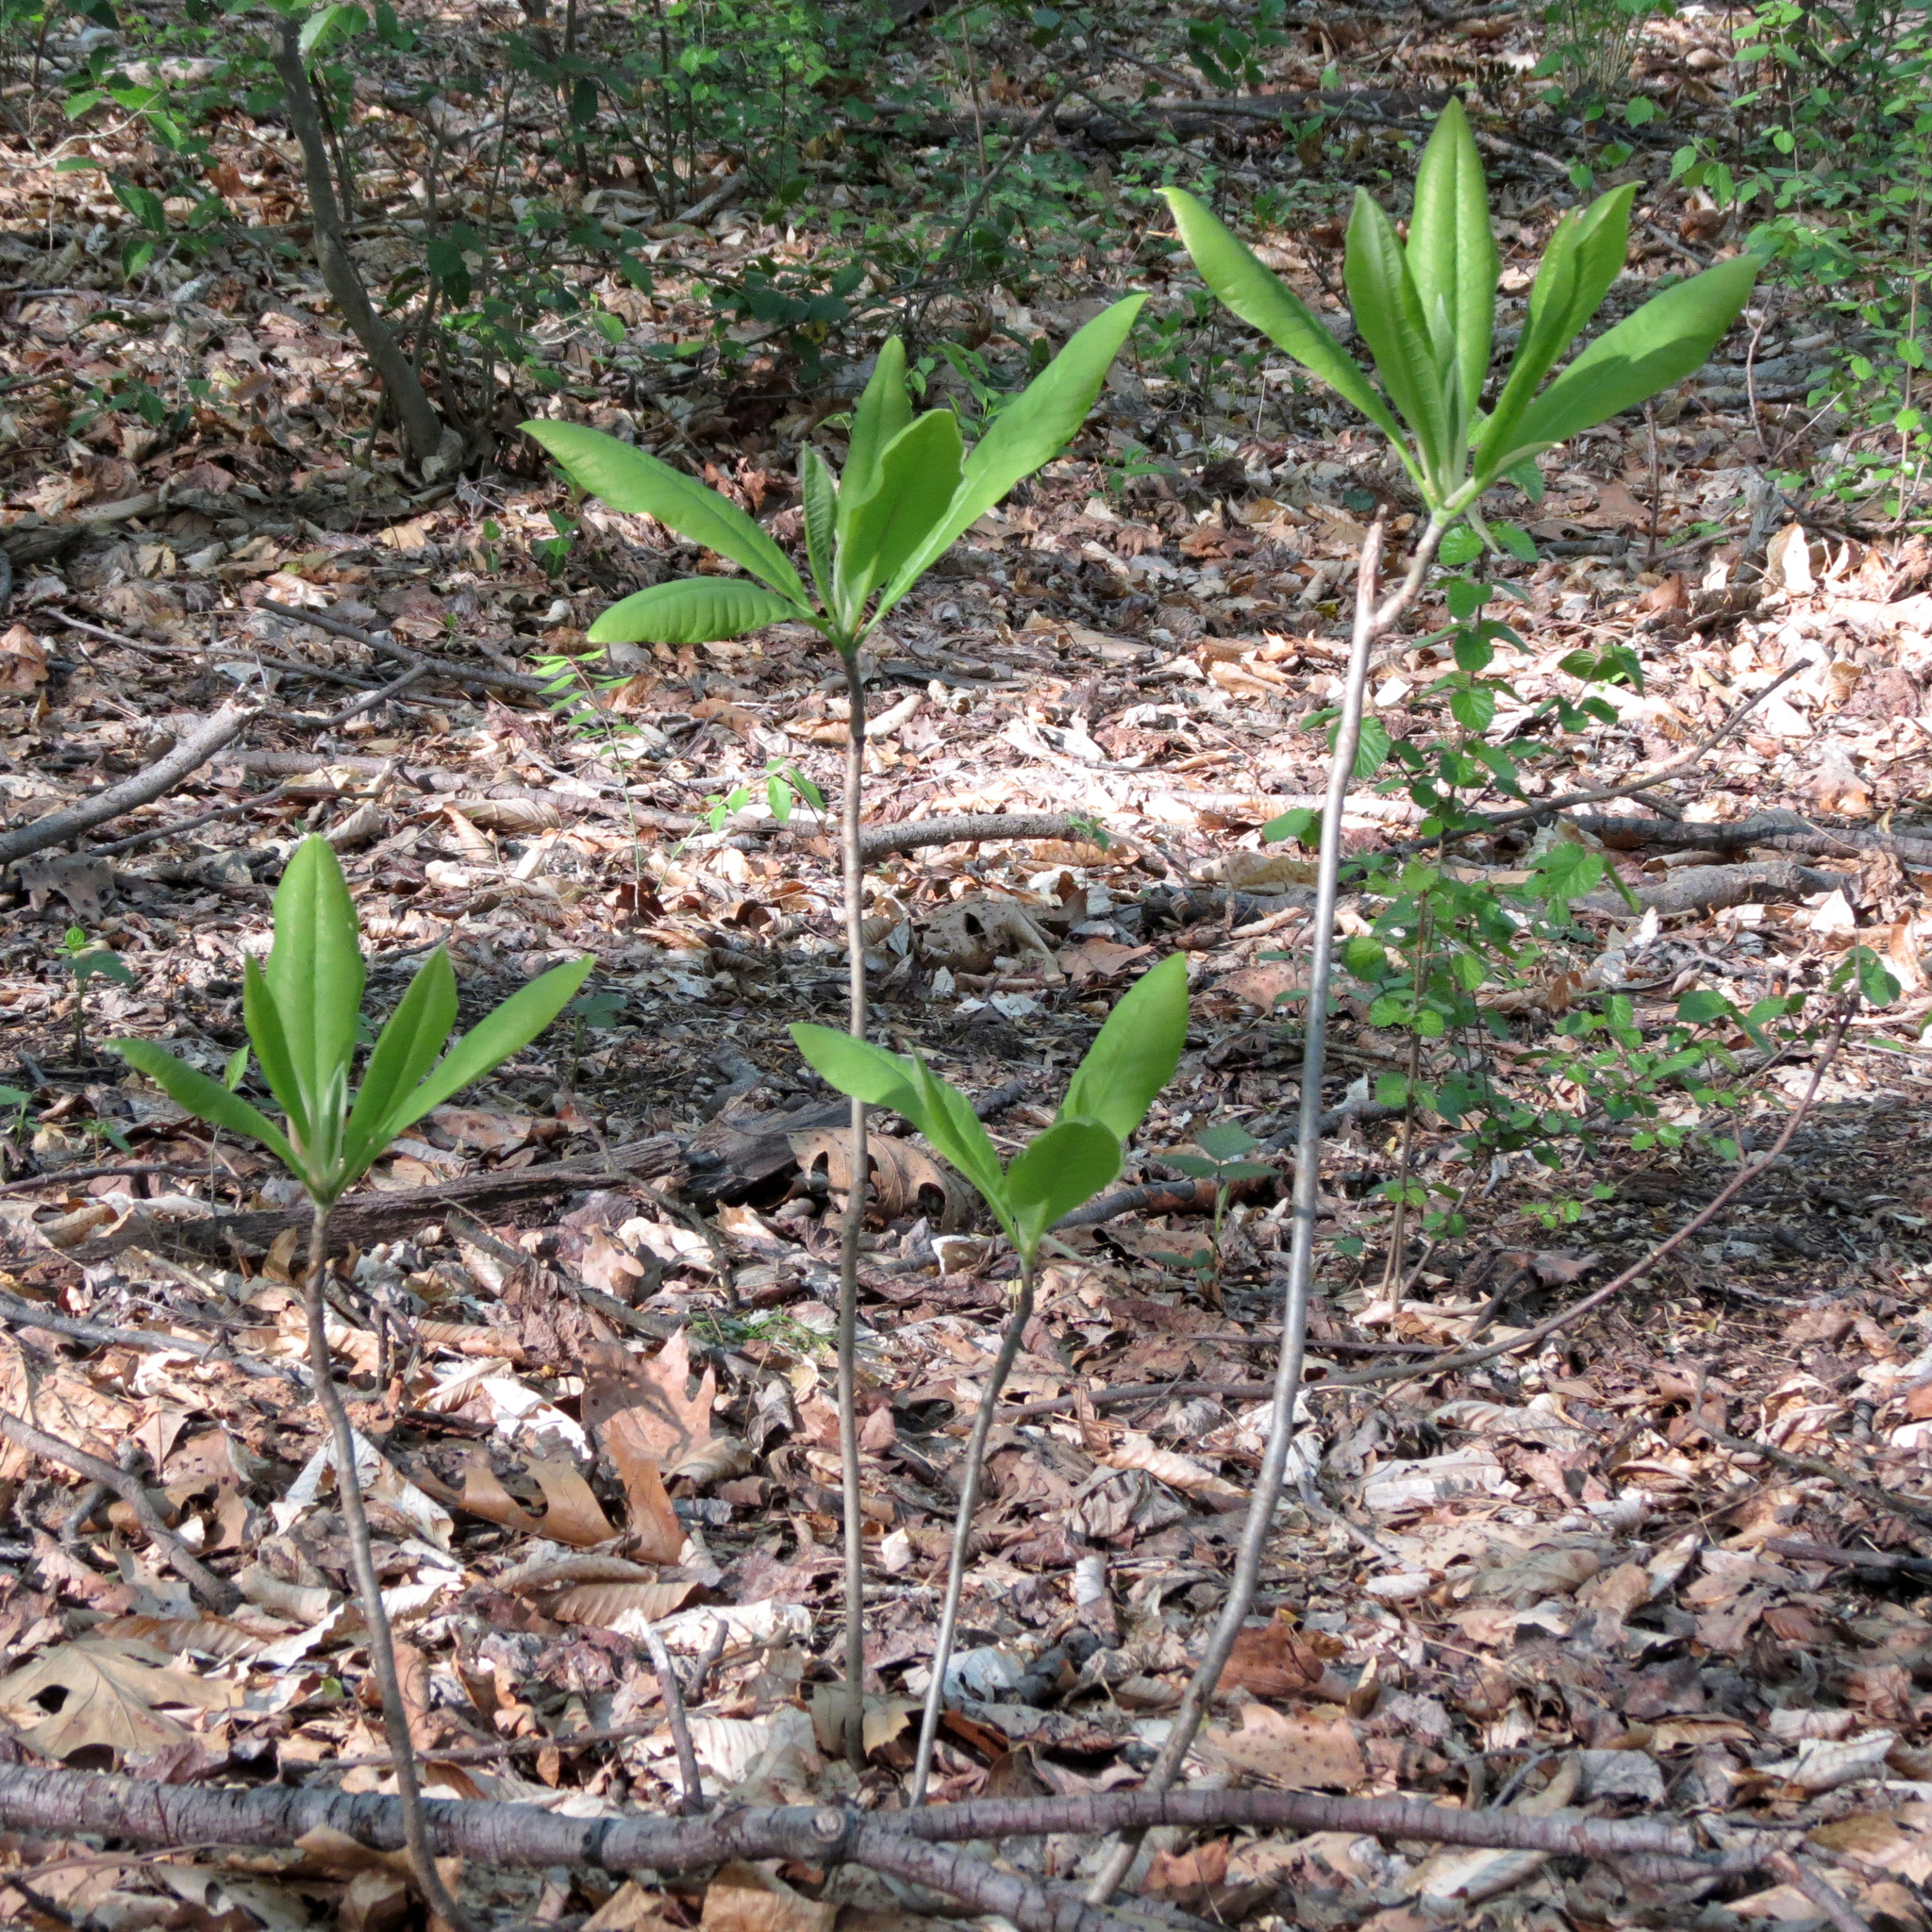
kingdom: Plantae
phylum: Tracheophyta
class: Magnoliopsida
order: Magnoliales
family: Magnoliaceae
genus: Magnolia
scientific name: Magnolia tripetala
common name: Umbrella magnolia
